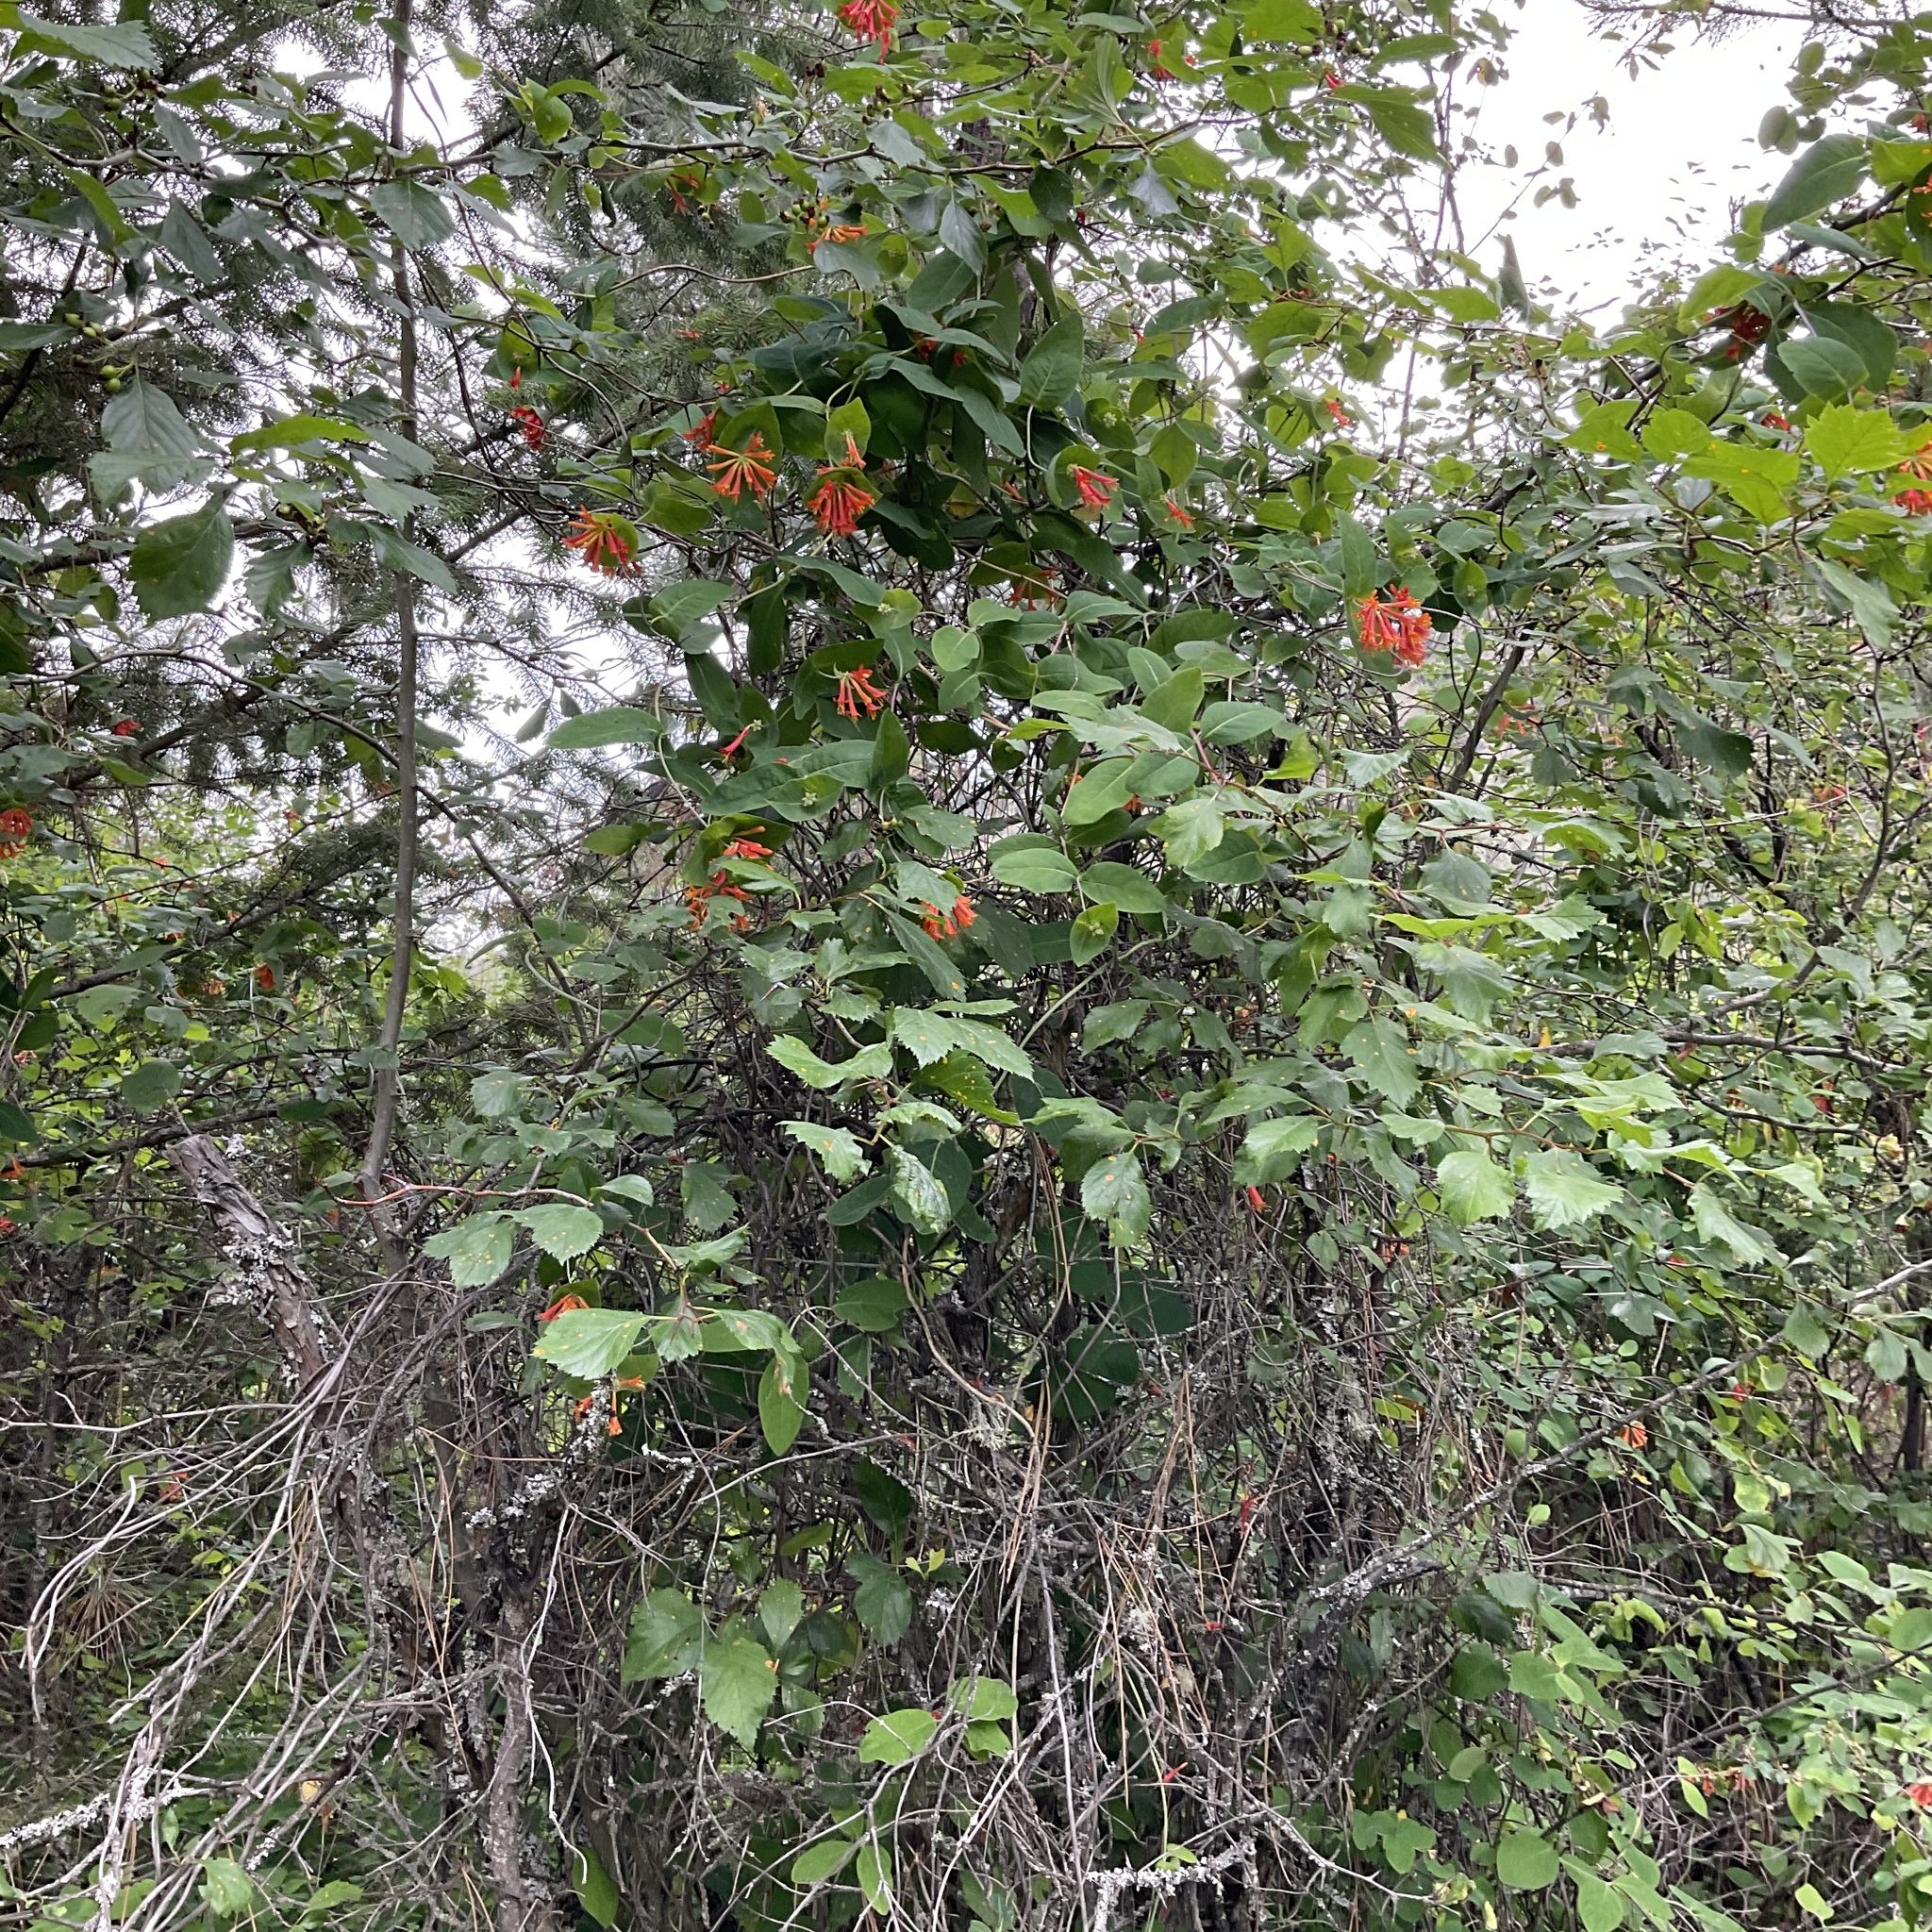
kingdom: Plantae
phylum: Tracheophyta
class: Magnoliopsida
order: Dipsacales
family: Caprifoliaceae
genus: Lonicera
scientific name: Lonicera ciliosa
